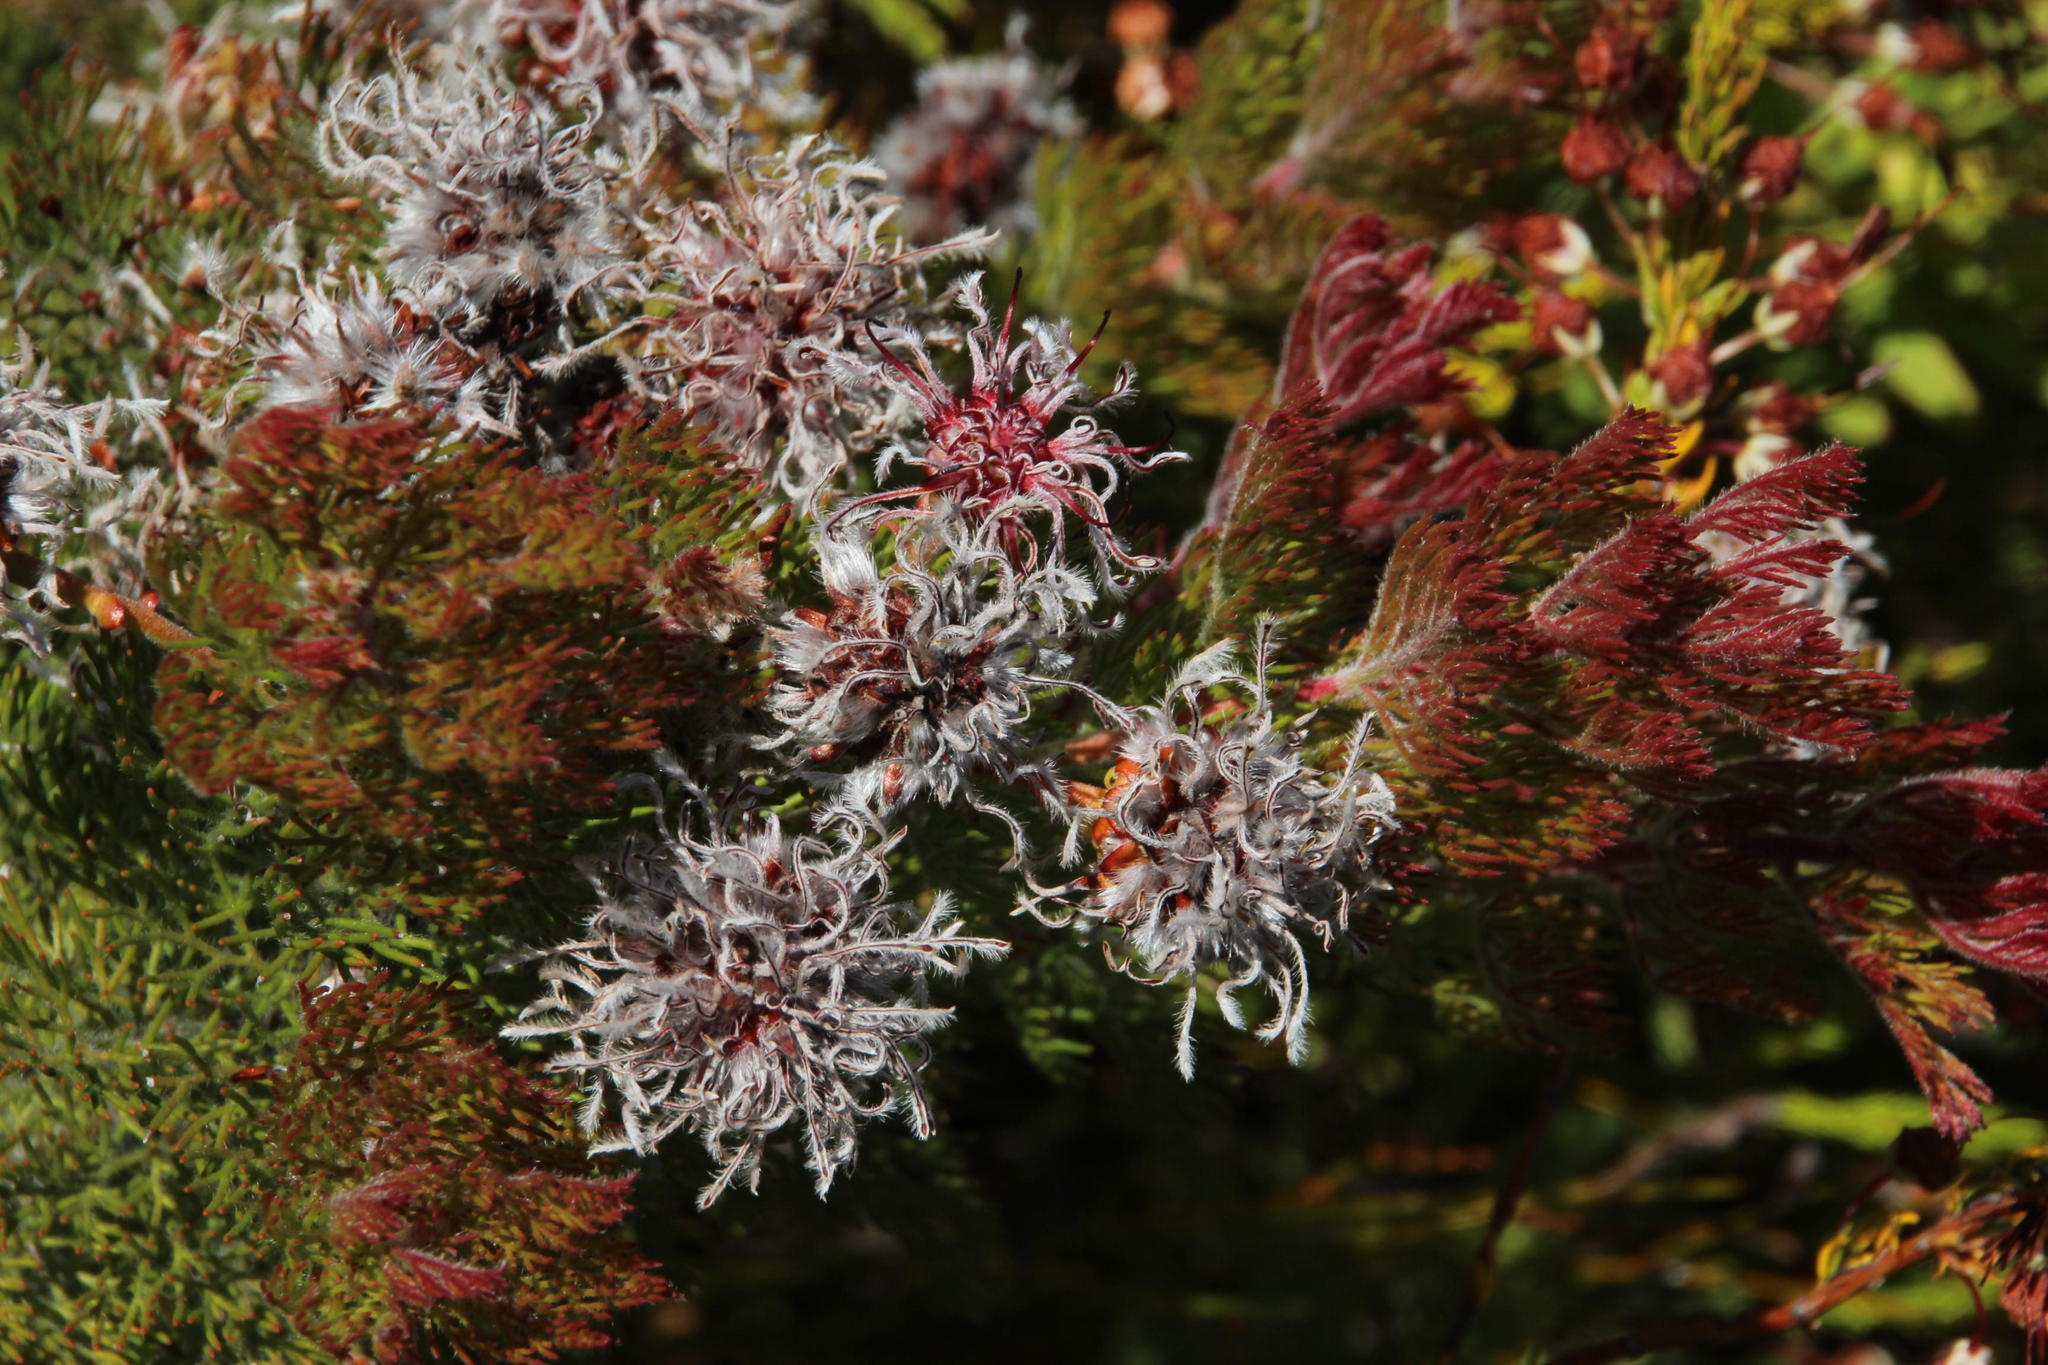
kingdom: Plantae
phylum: Tracheophyta
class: Magnoliopsida
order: Proteales
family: Proteaceae
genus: Serruria
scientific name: Serruria aitonii
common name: Marshmallow spiderhead
